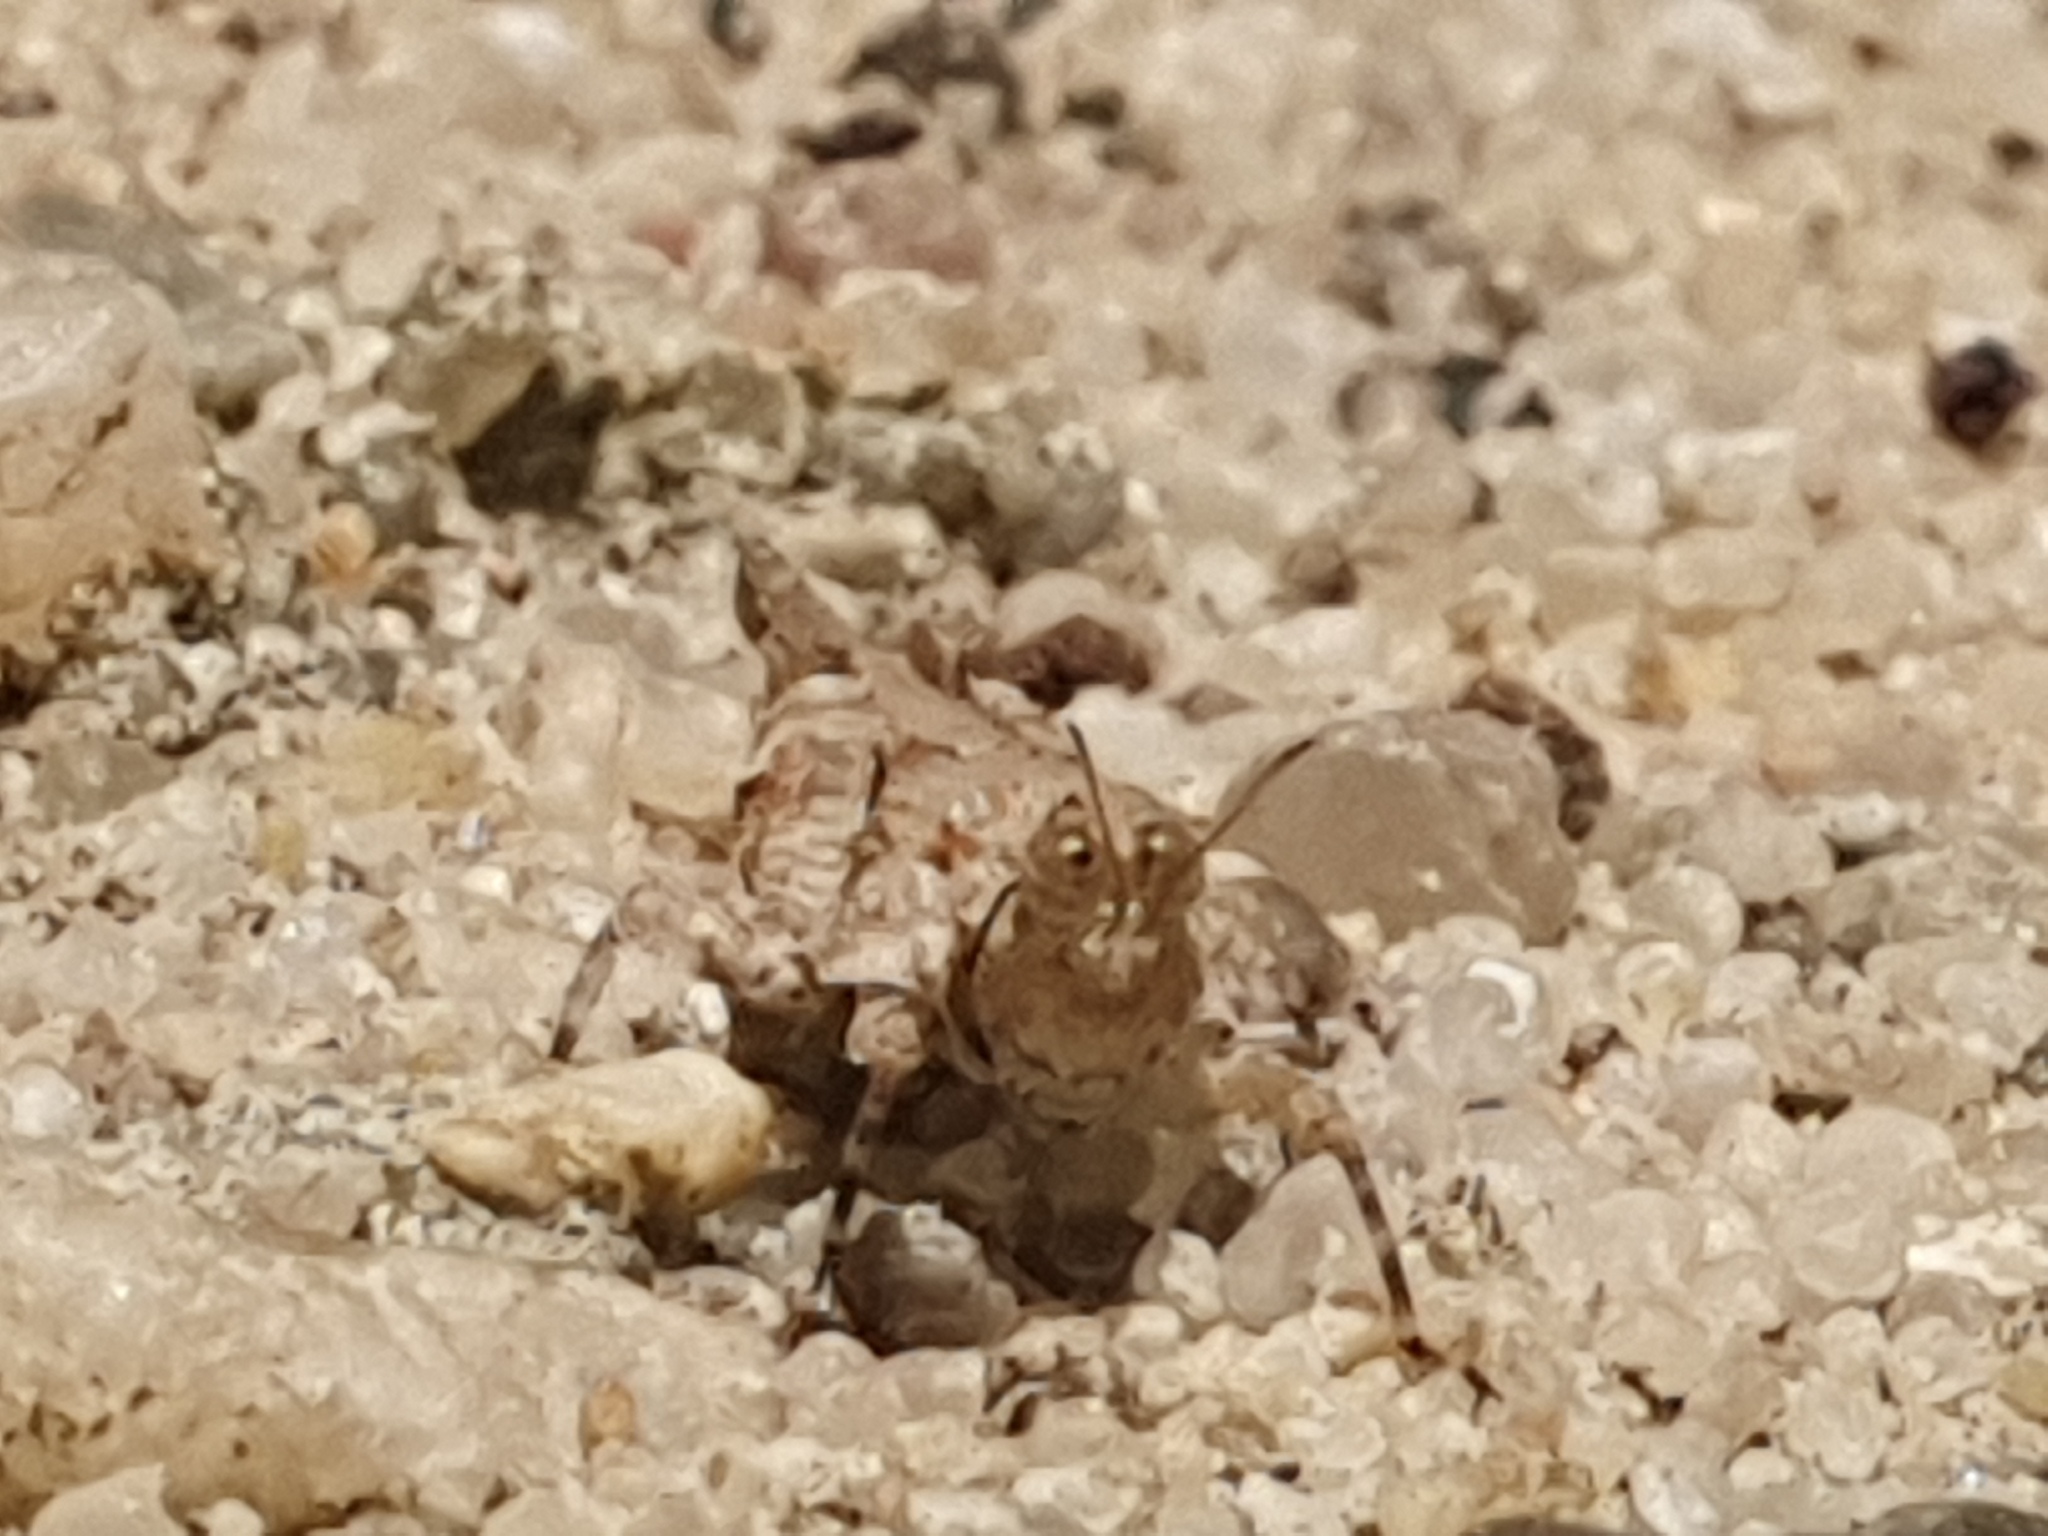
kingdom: Animalia
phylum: Arthropoda
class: Insecta
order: Orthoptera
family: Tetrigidae
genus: Morphopoides
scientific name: Morphopoides madagascariense
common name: Madagascar flatpaw pygmy grasshopper
